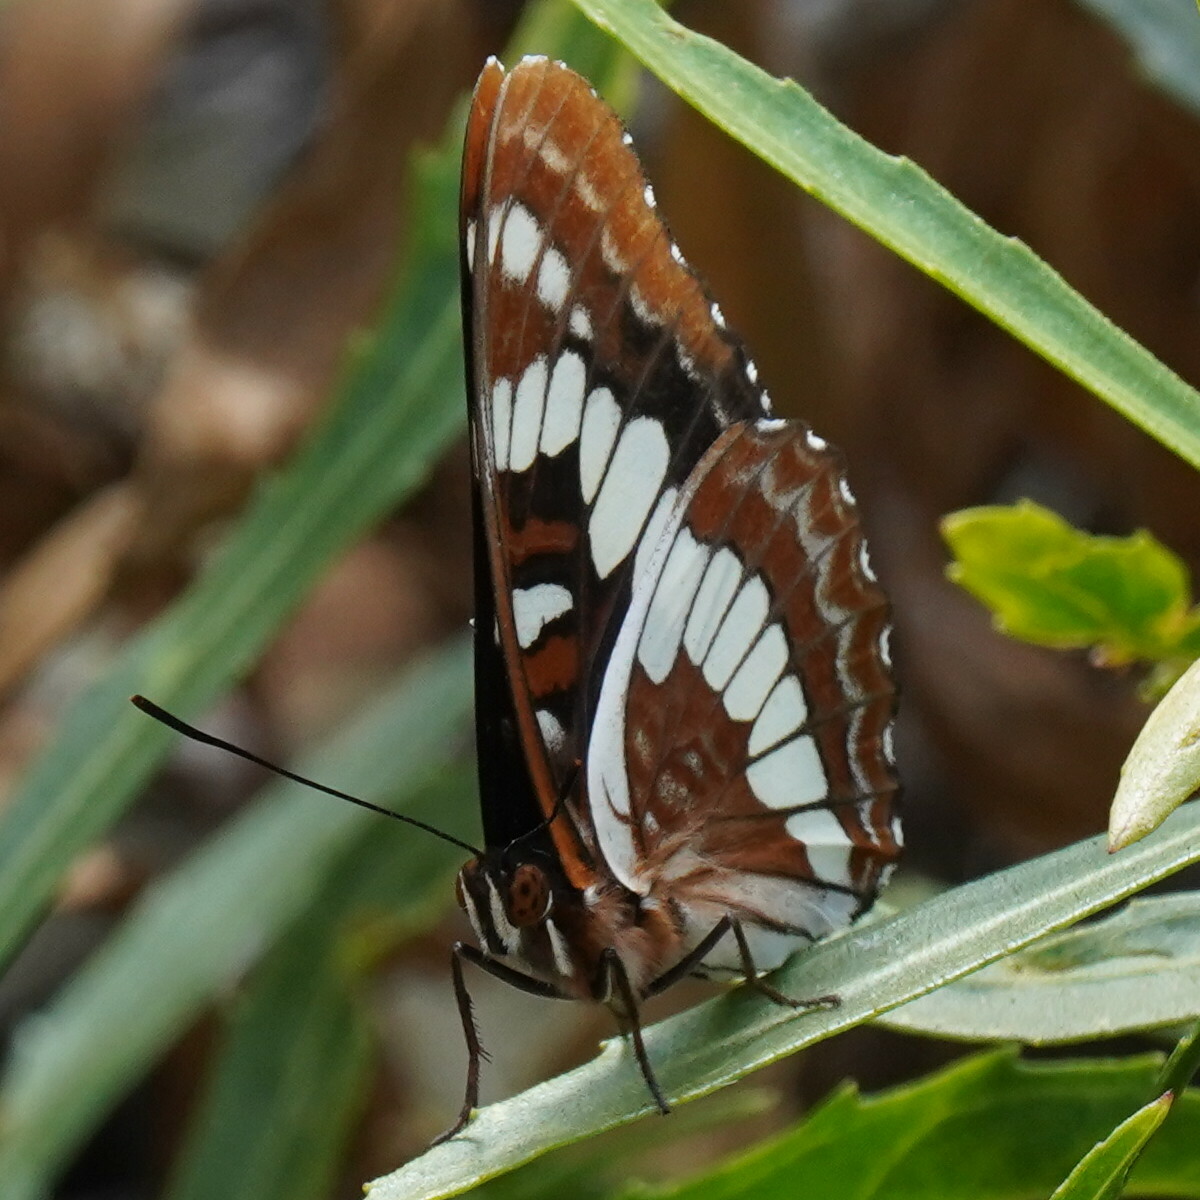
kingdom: Animalia
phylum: Arthropoda
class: Insecta
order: Lepidoptera
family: Nymphalidae
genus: Limenitis
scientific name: Limenitis lorquini
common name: Lorquin's admiral
